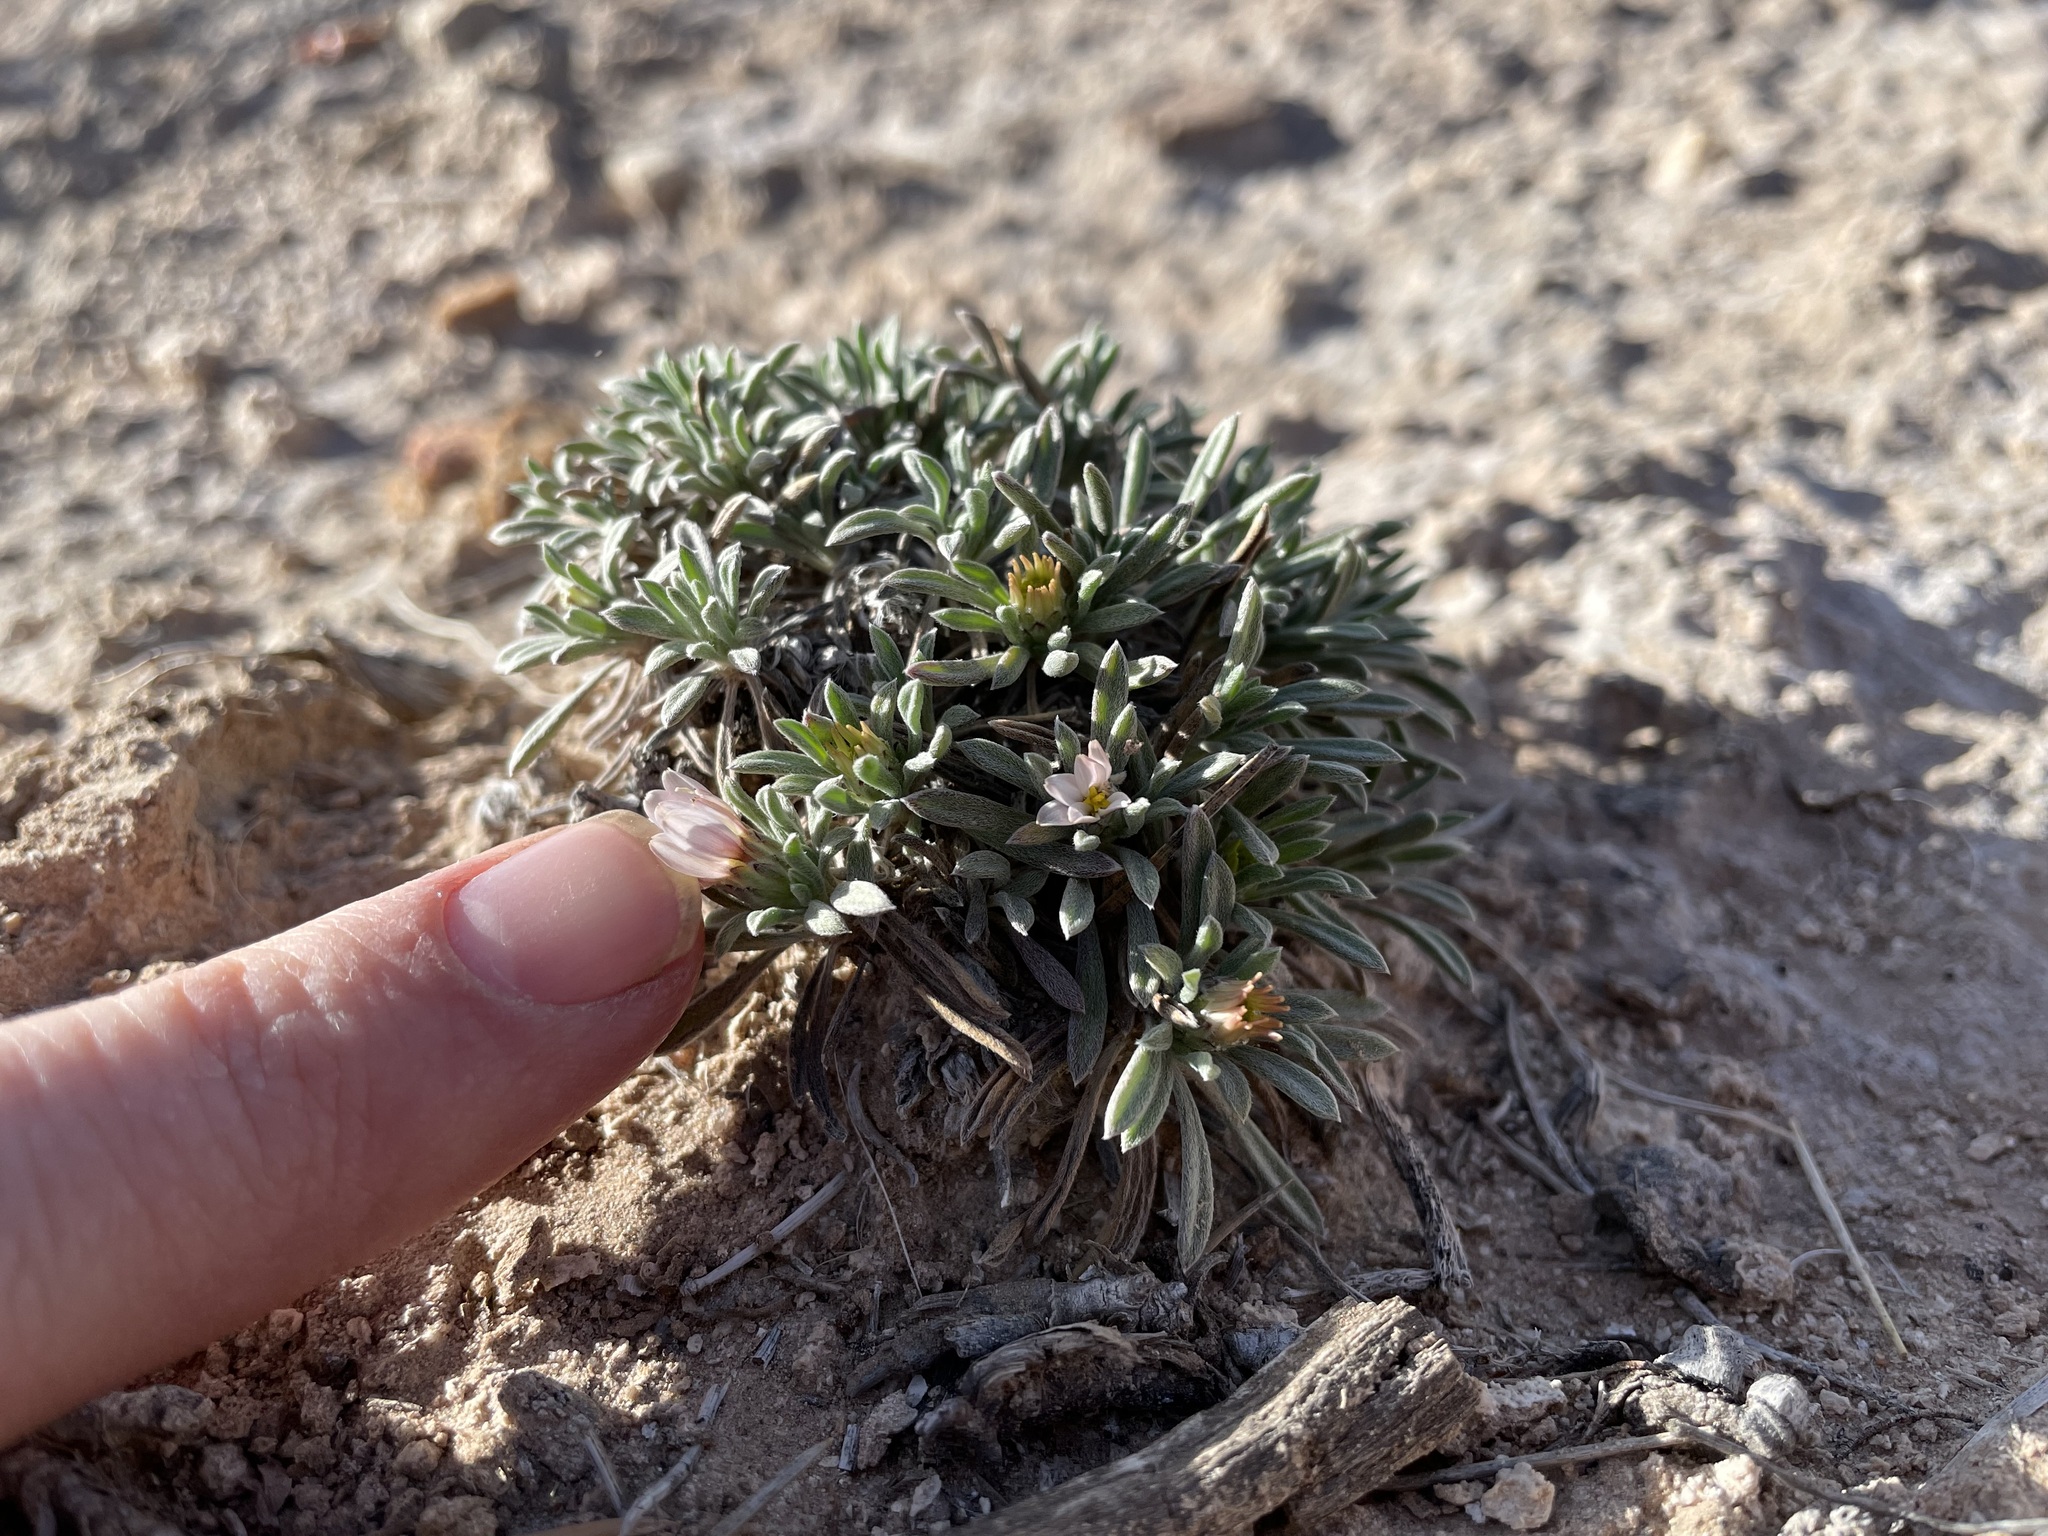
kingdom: Plantae
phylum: Tracheophyta
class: Magnoliopsida
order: Asterales
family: Asteraceae
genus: Townsendia
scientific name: Townsendia gypsophila
